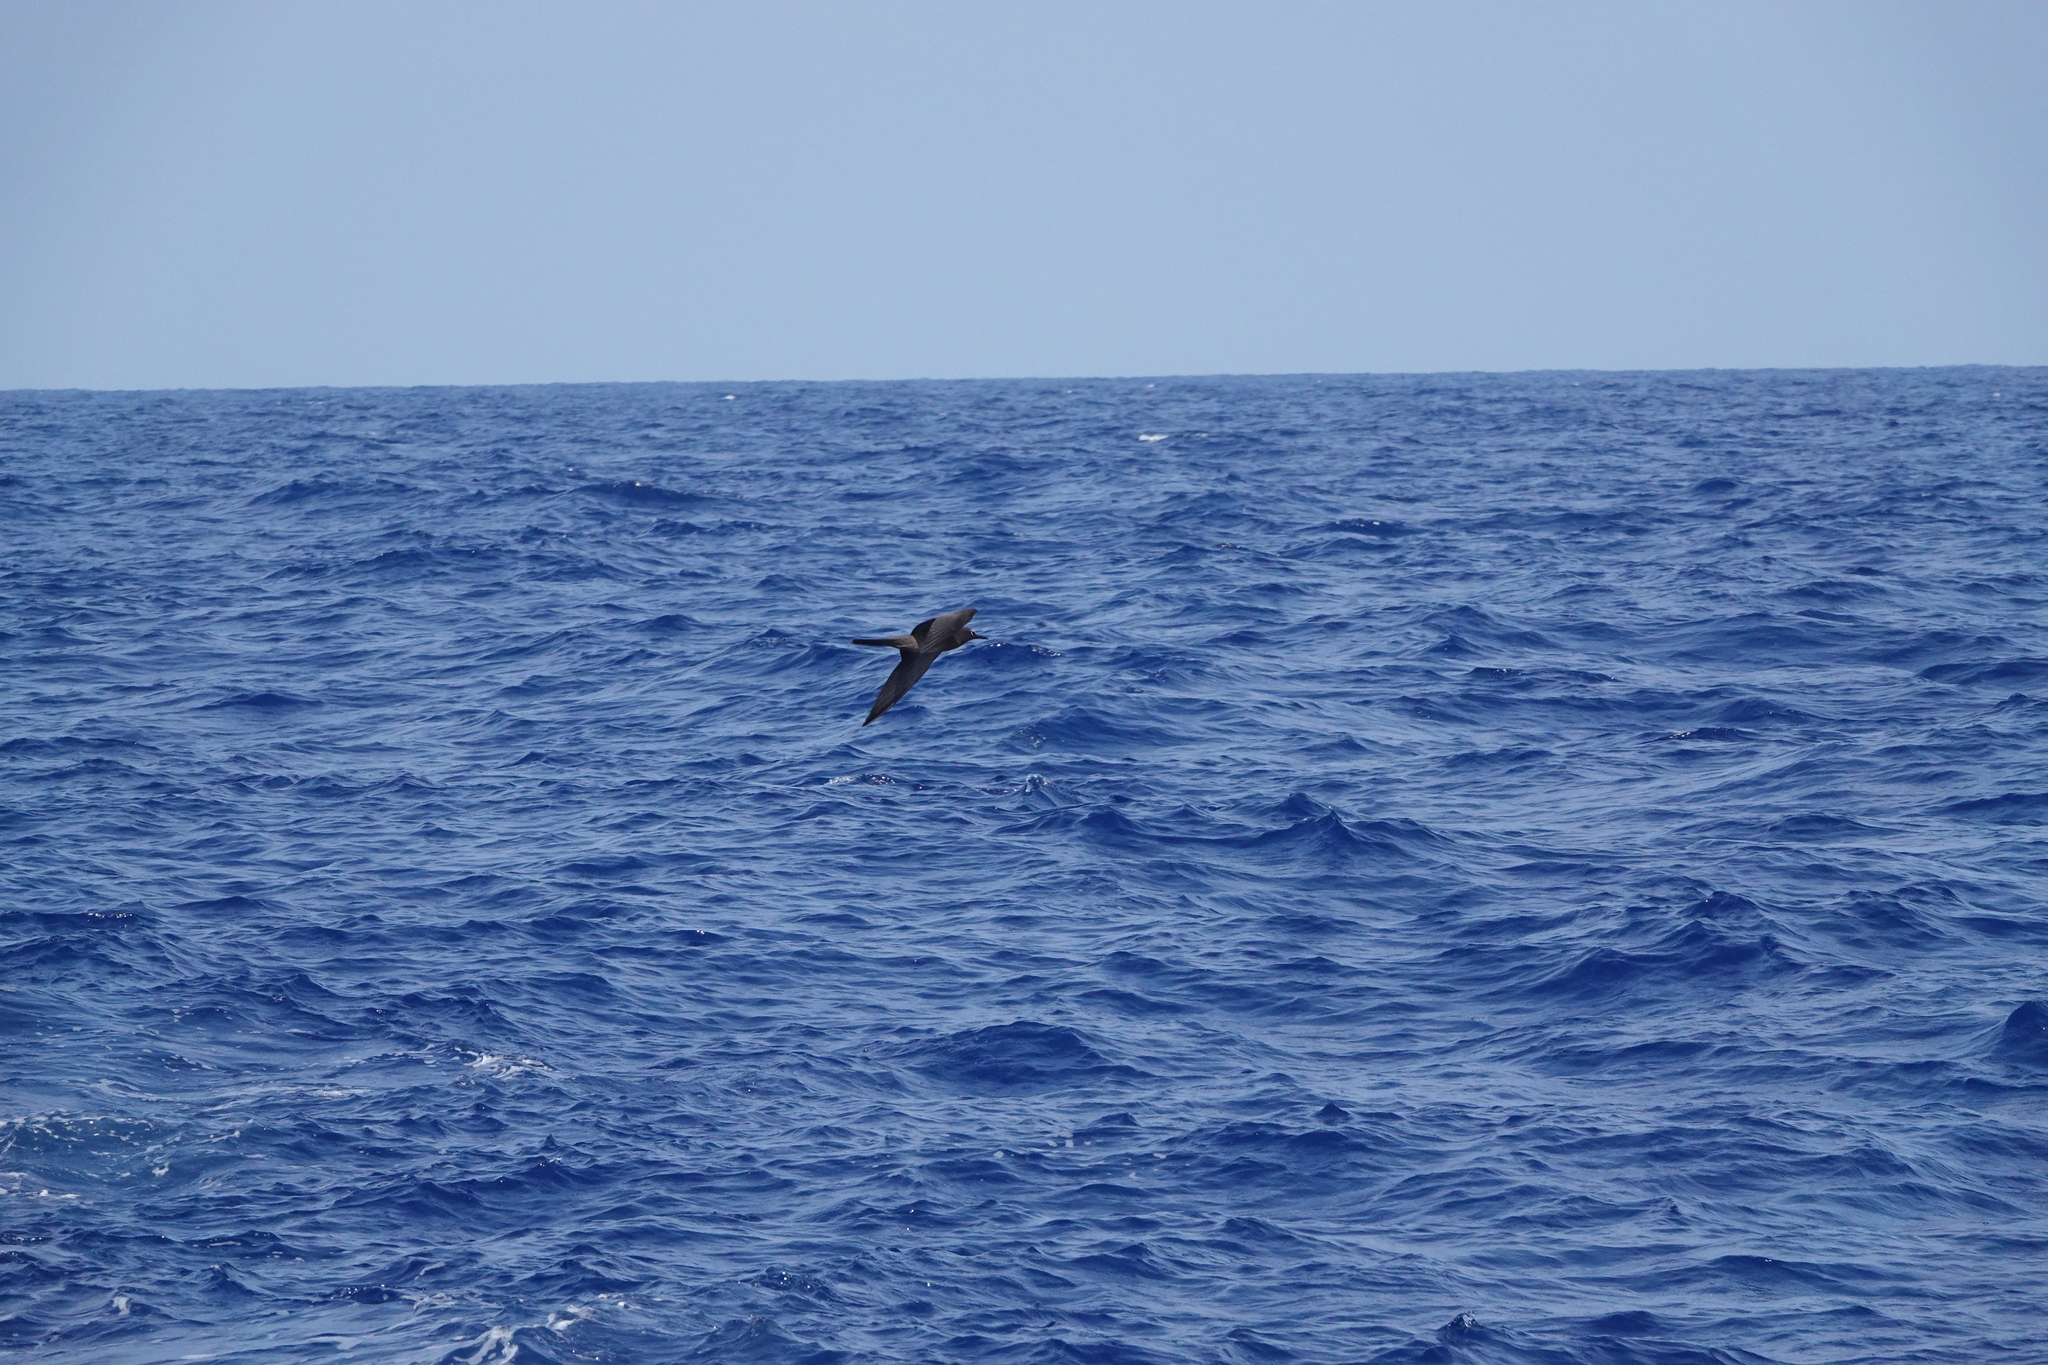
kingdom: Animalia
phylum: Chordata
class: Aves
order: Charadriiformes
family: Laridae
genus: Anous
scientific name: Anous stolidus
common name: Brown noddy
